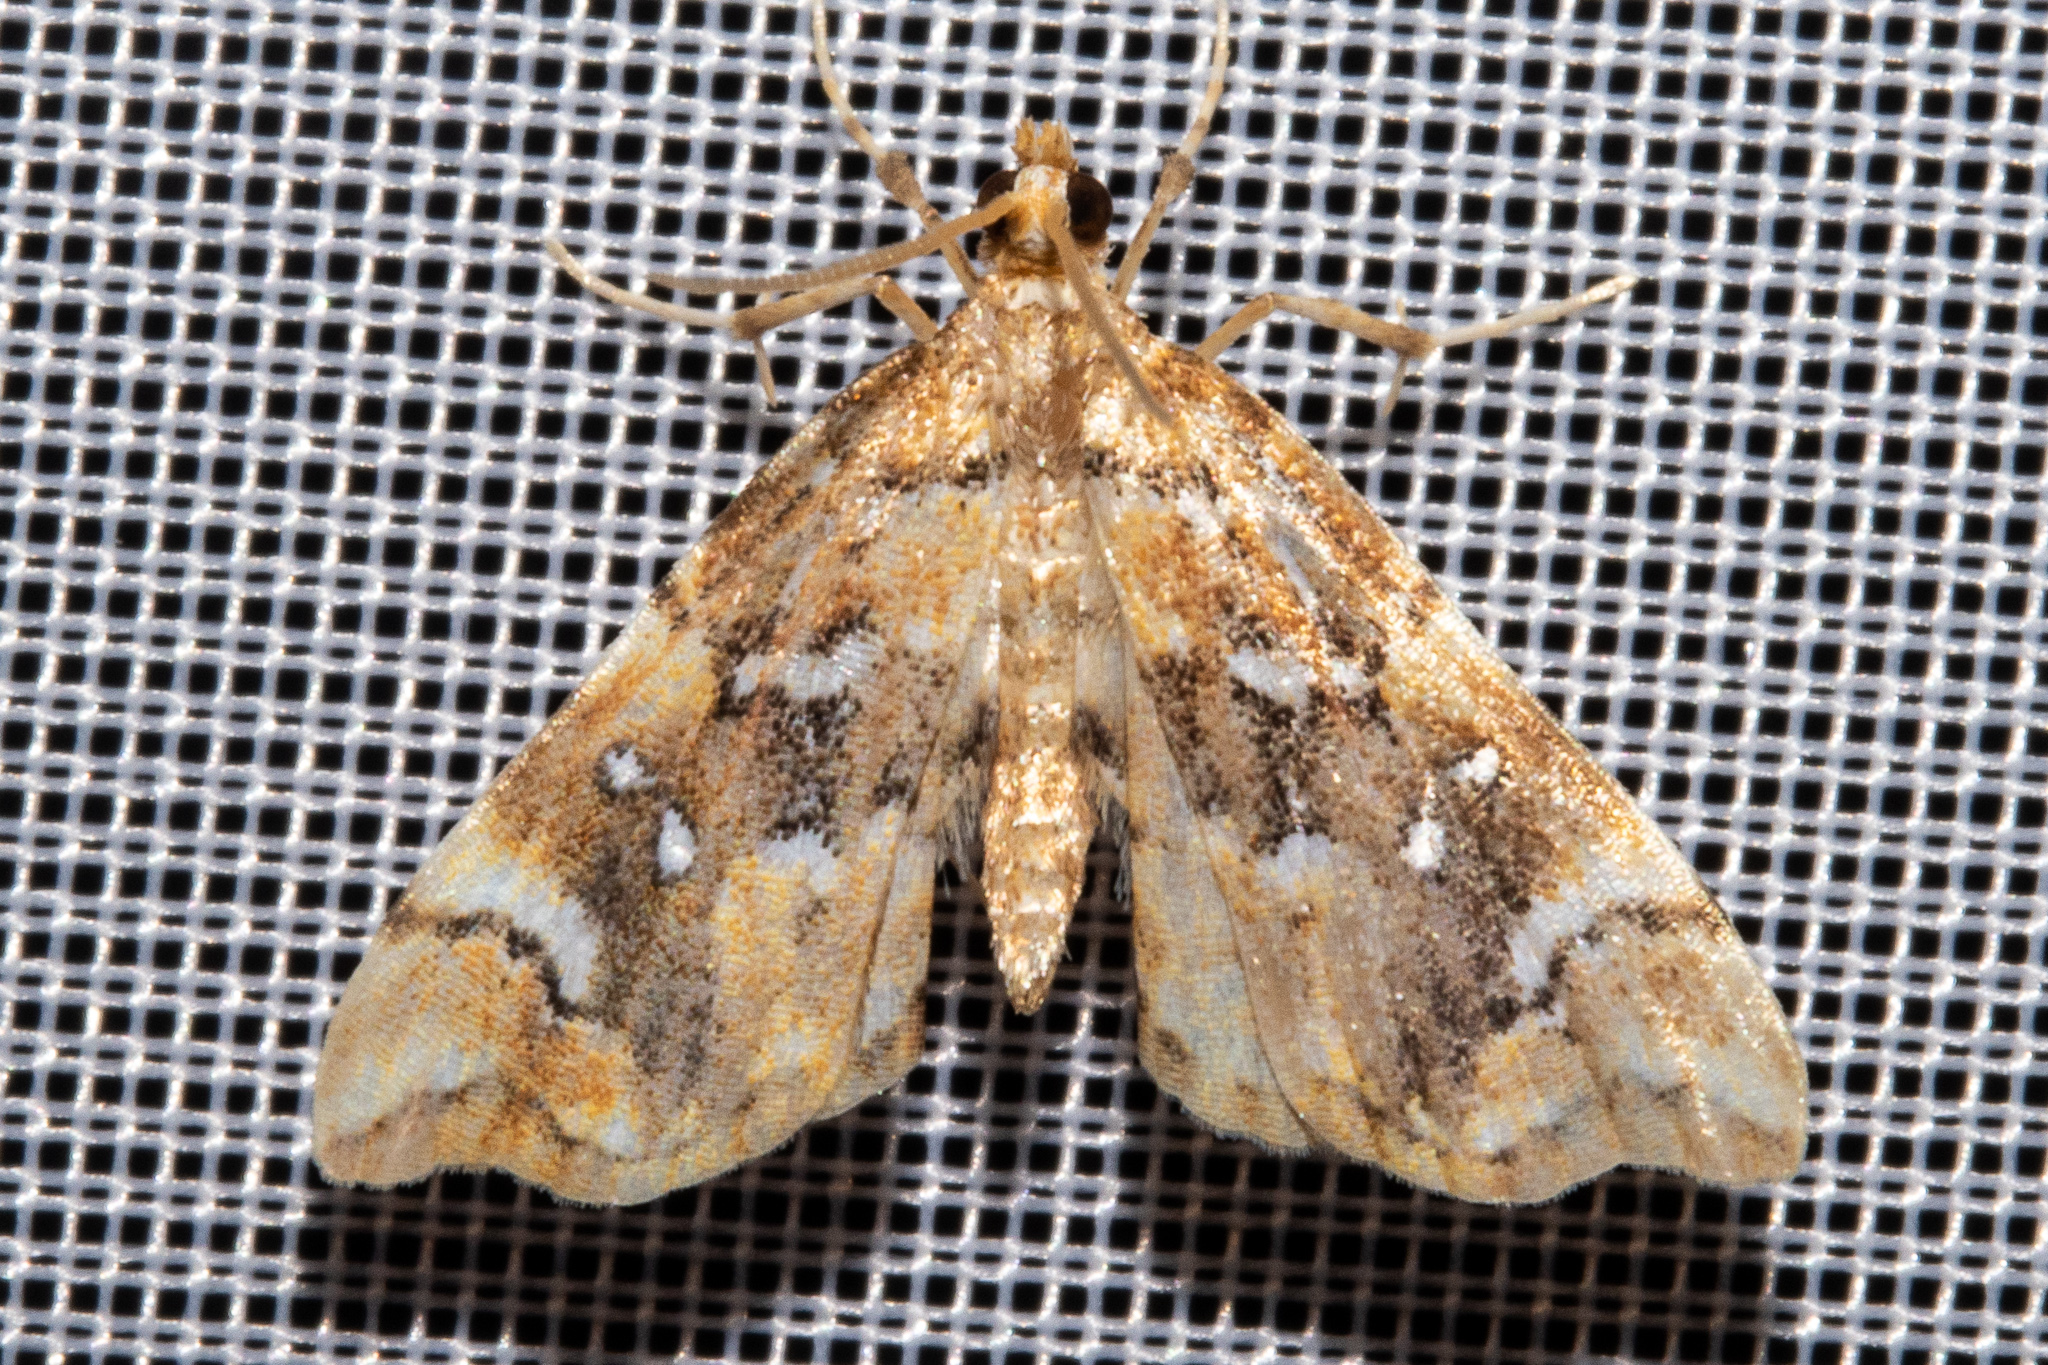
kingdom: Animalia
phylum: Arthropoda
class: Insecta
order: Lepidoptera
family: Pyralidae
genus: Musotima
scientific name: Musotima nitidalis
